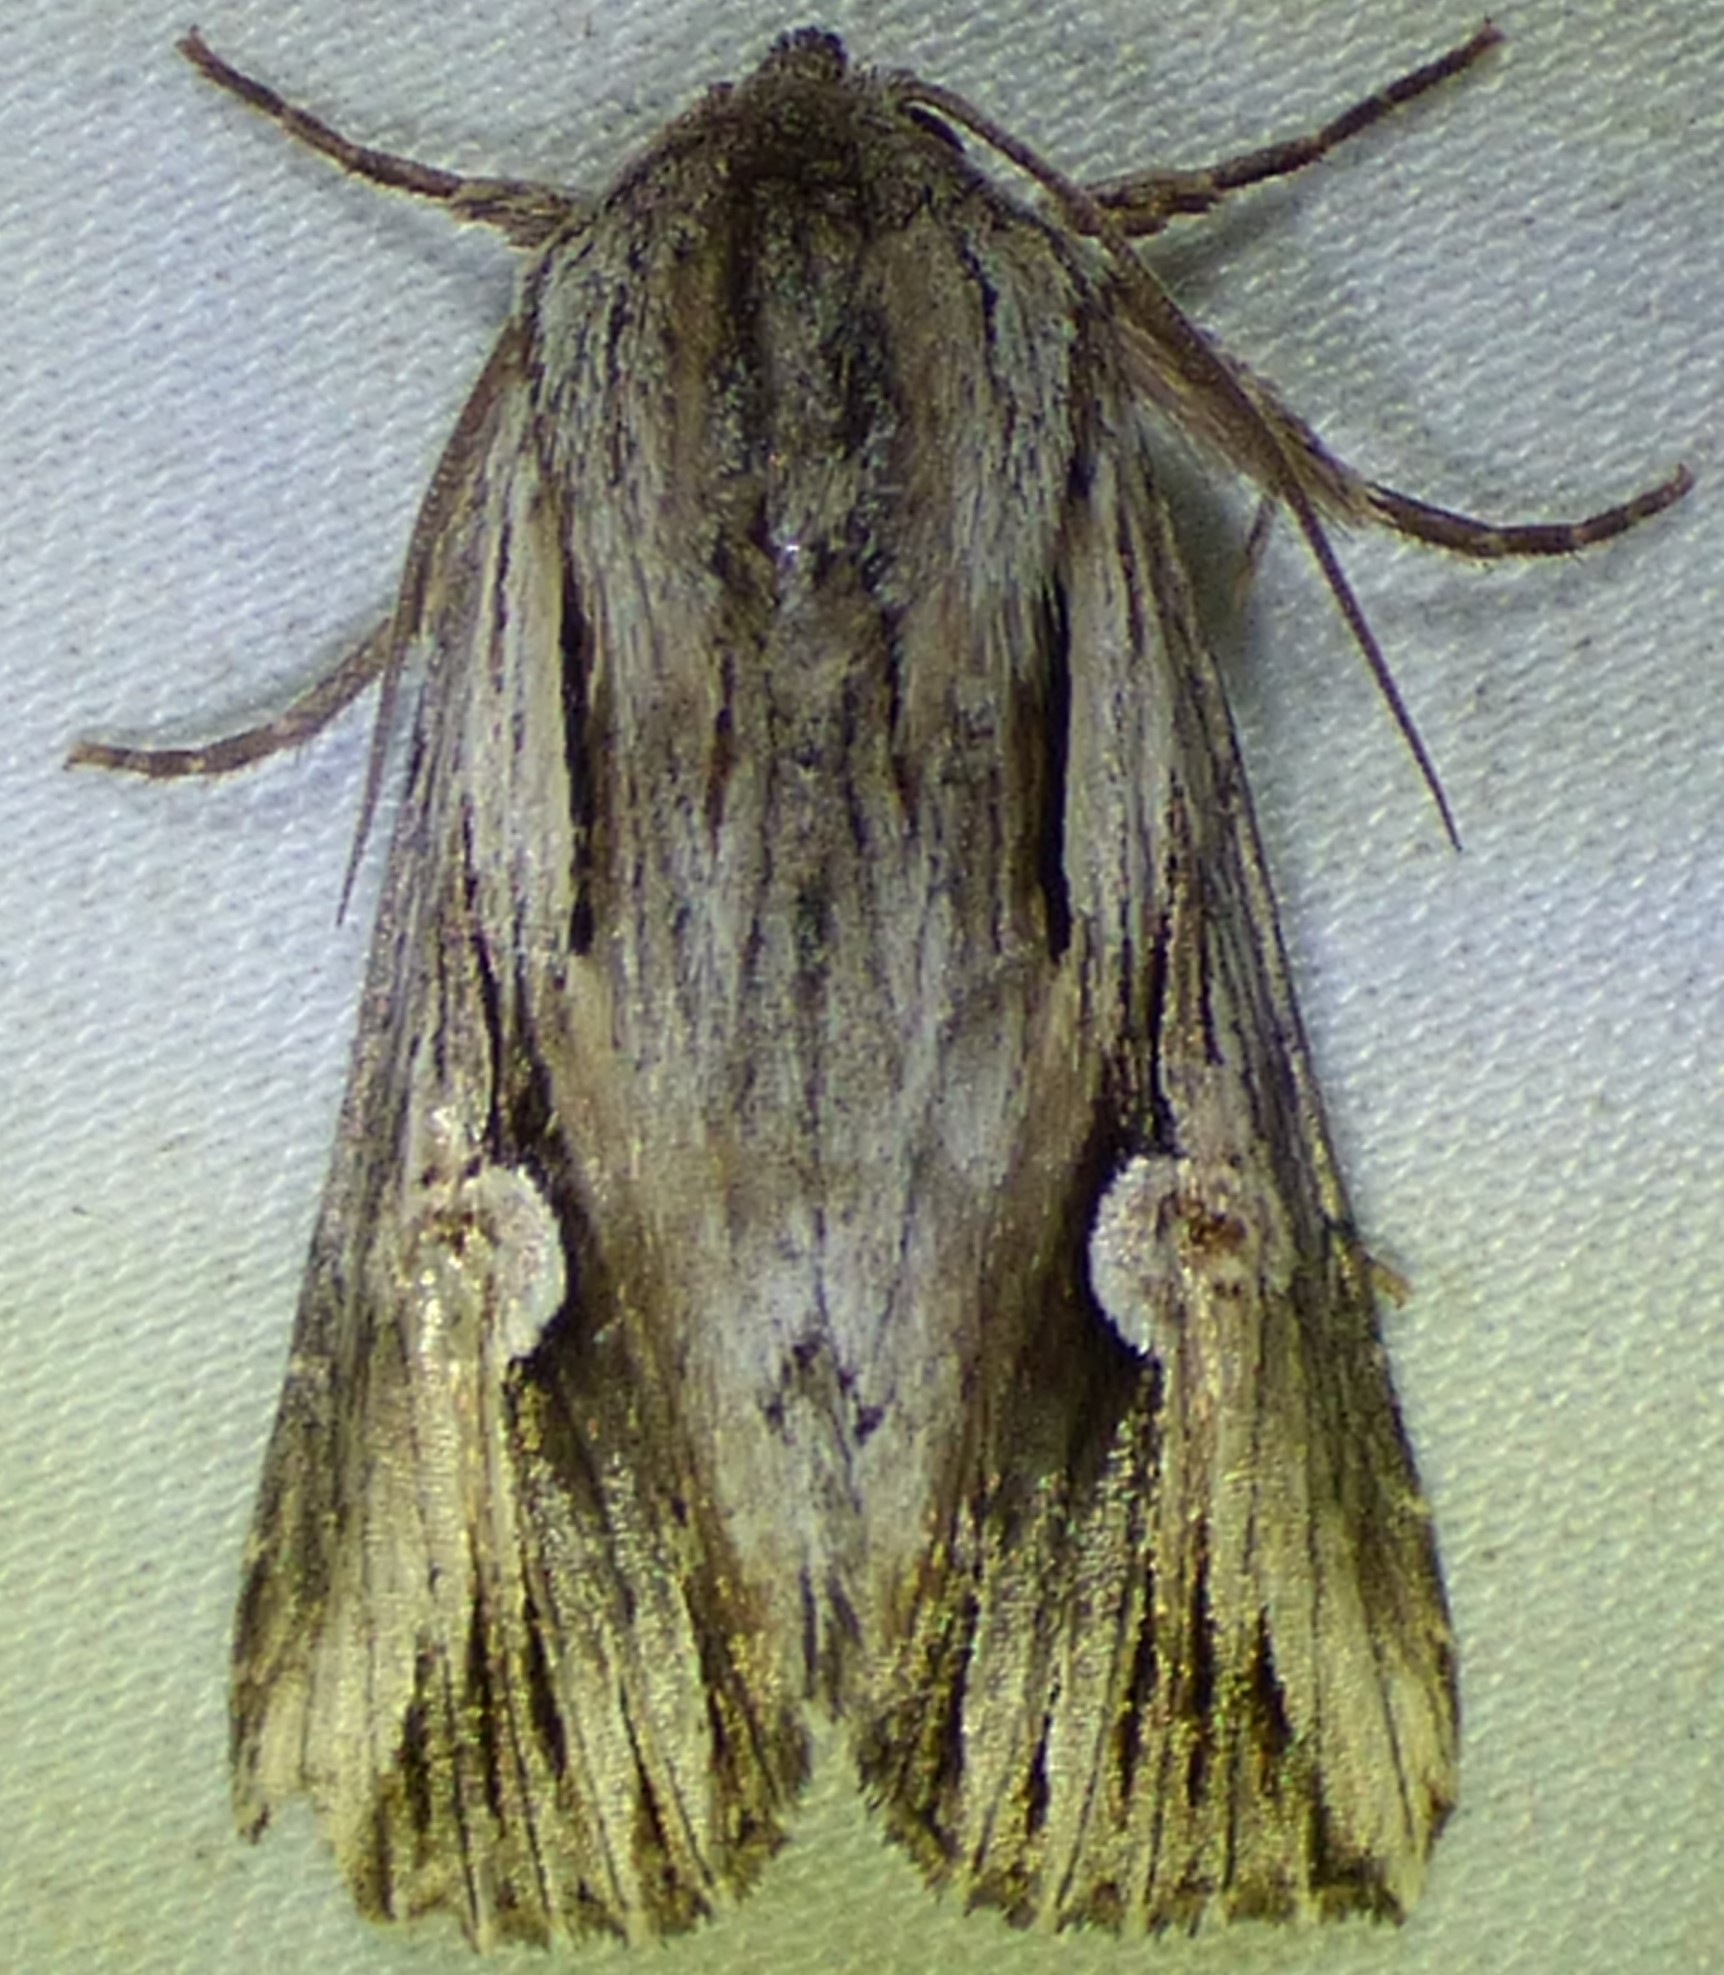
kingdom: Animalia
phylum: Arthropoda
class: Insecta
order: Lepidoptera
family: Noctuidae
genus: Nedra
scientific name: Nedra ramosula
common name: Gray half-spot
